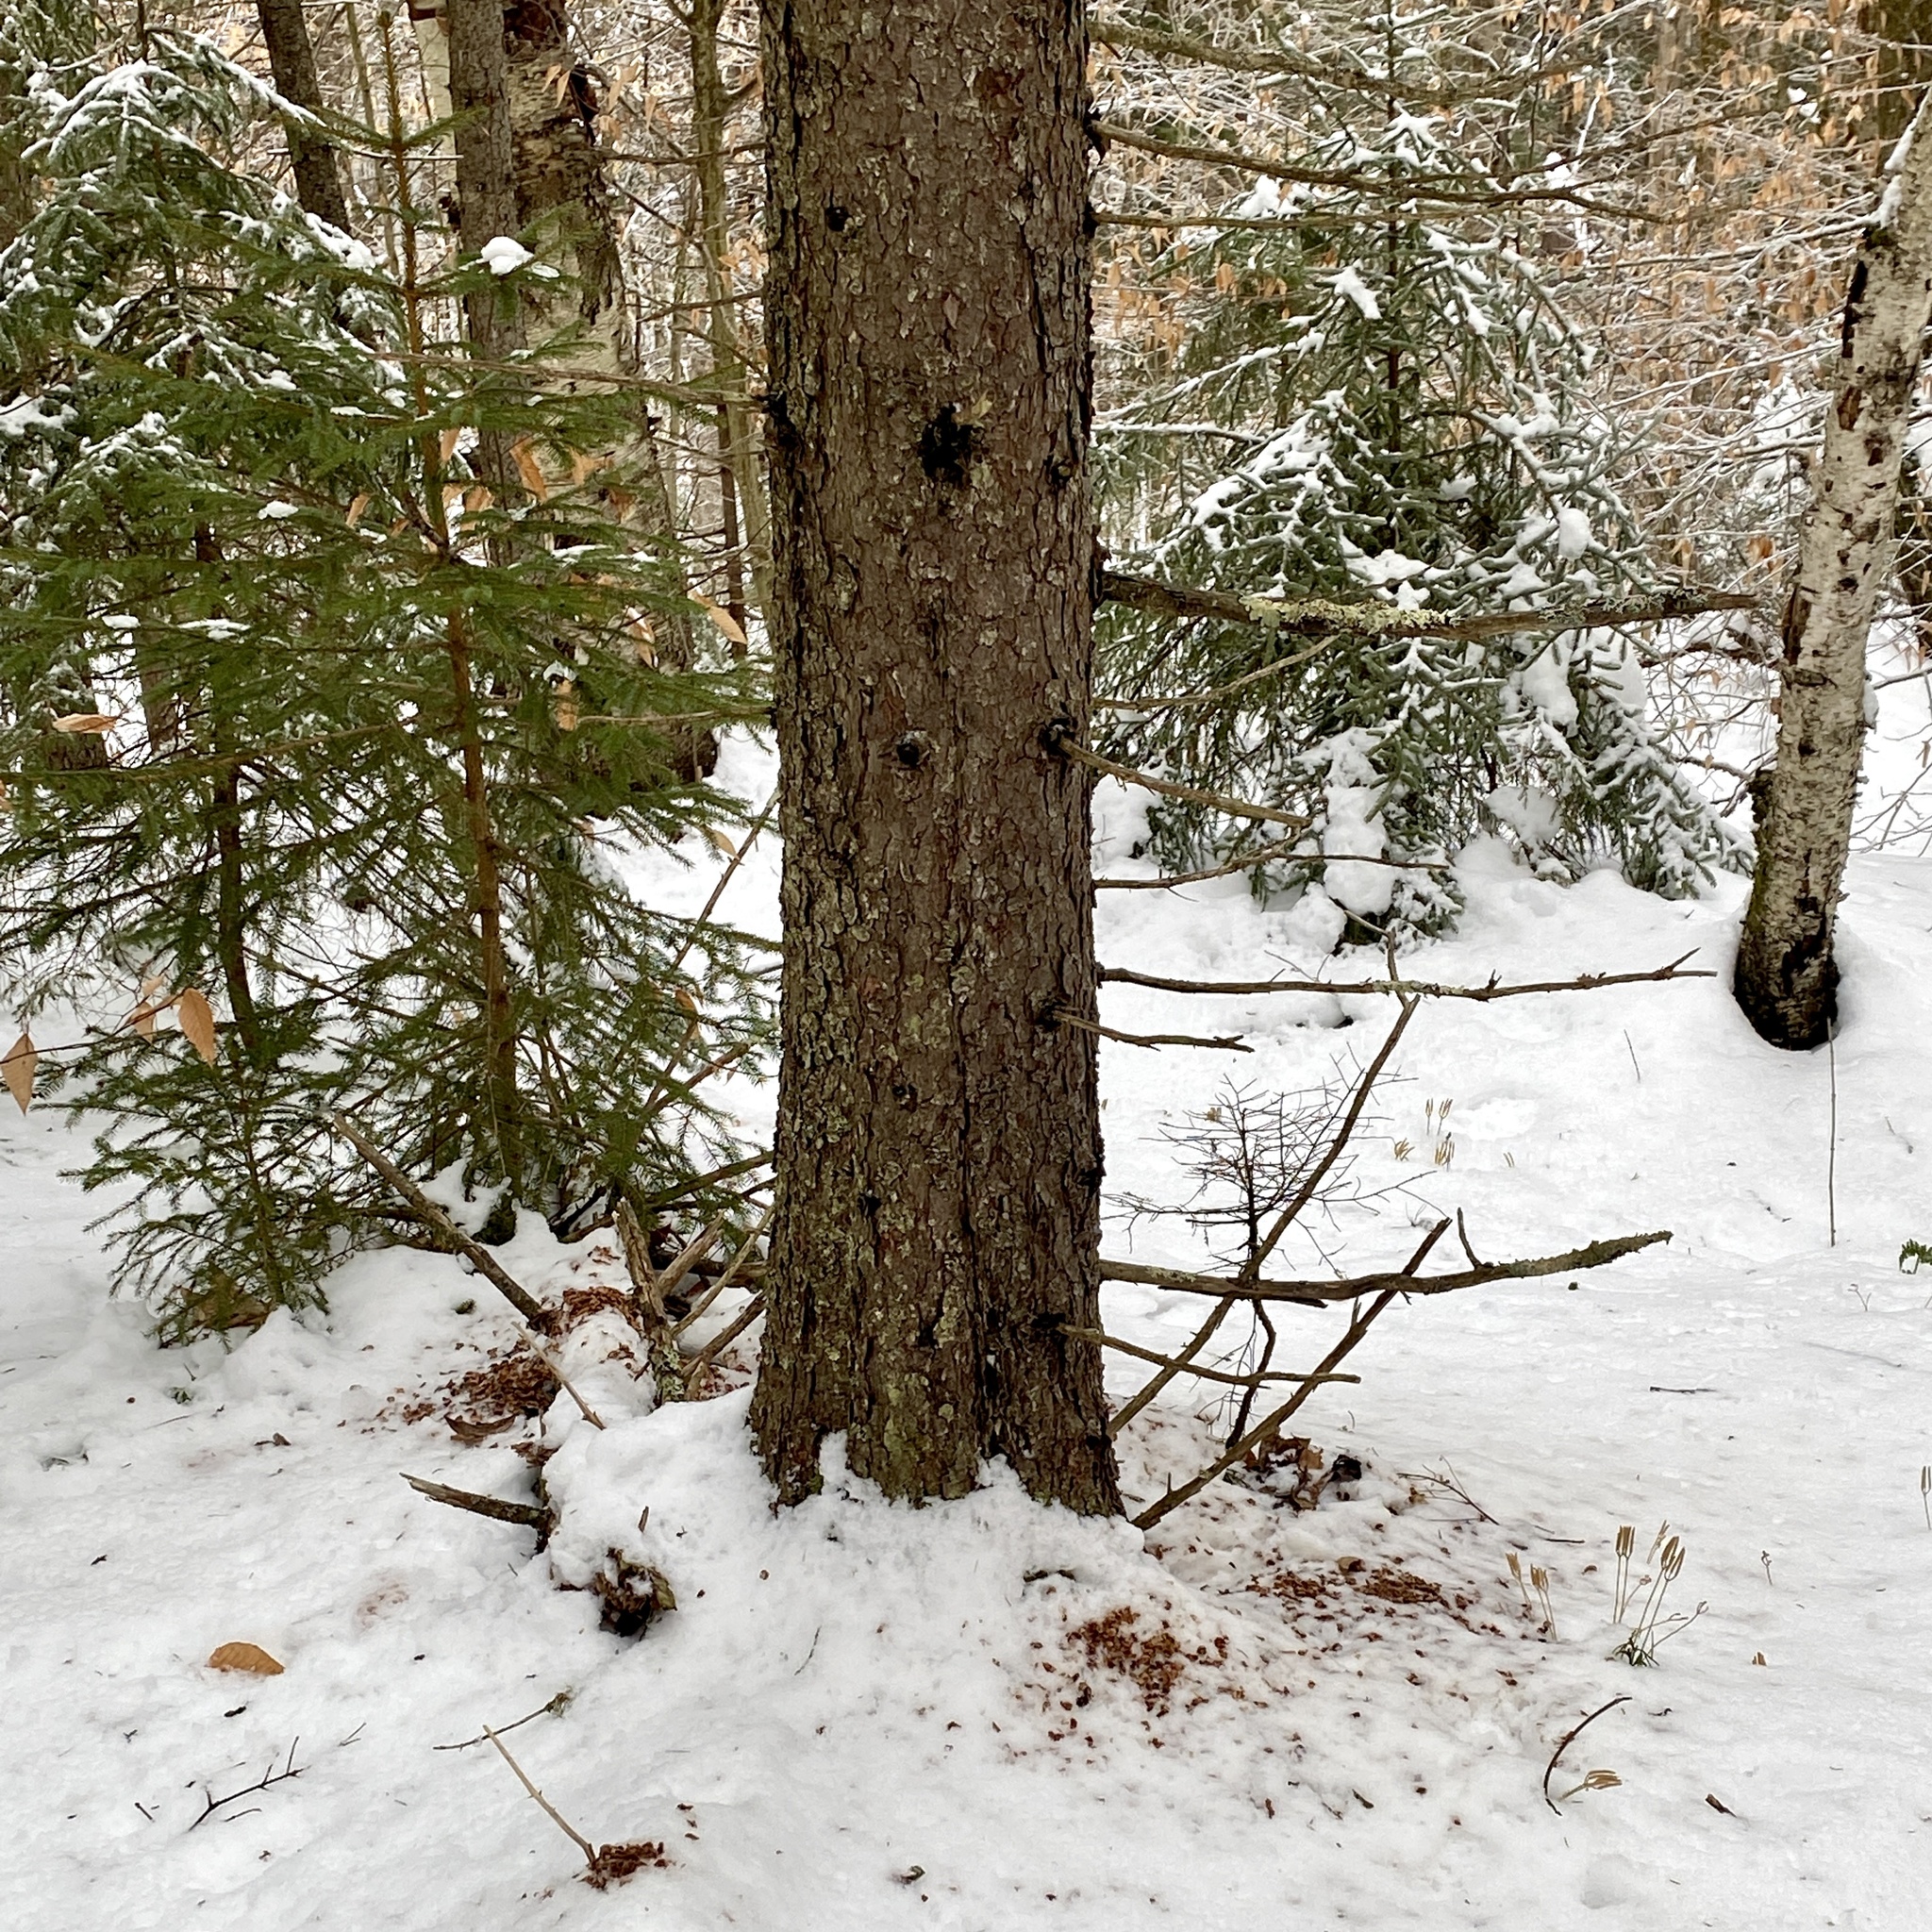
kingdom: Animalia
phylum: Chordata
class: Mammalia
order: Rodentia
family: Sciuridae
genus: Tamiasciurus
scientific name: Tamiasciurus hudsonicus
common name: Red squirrel
